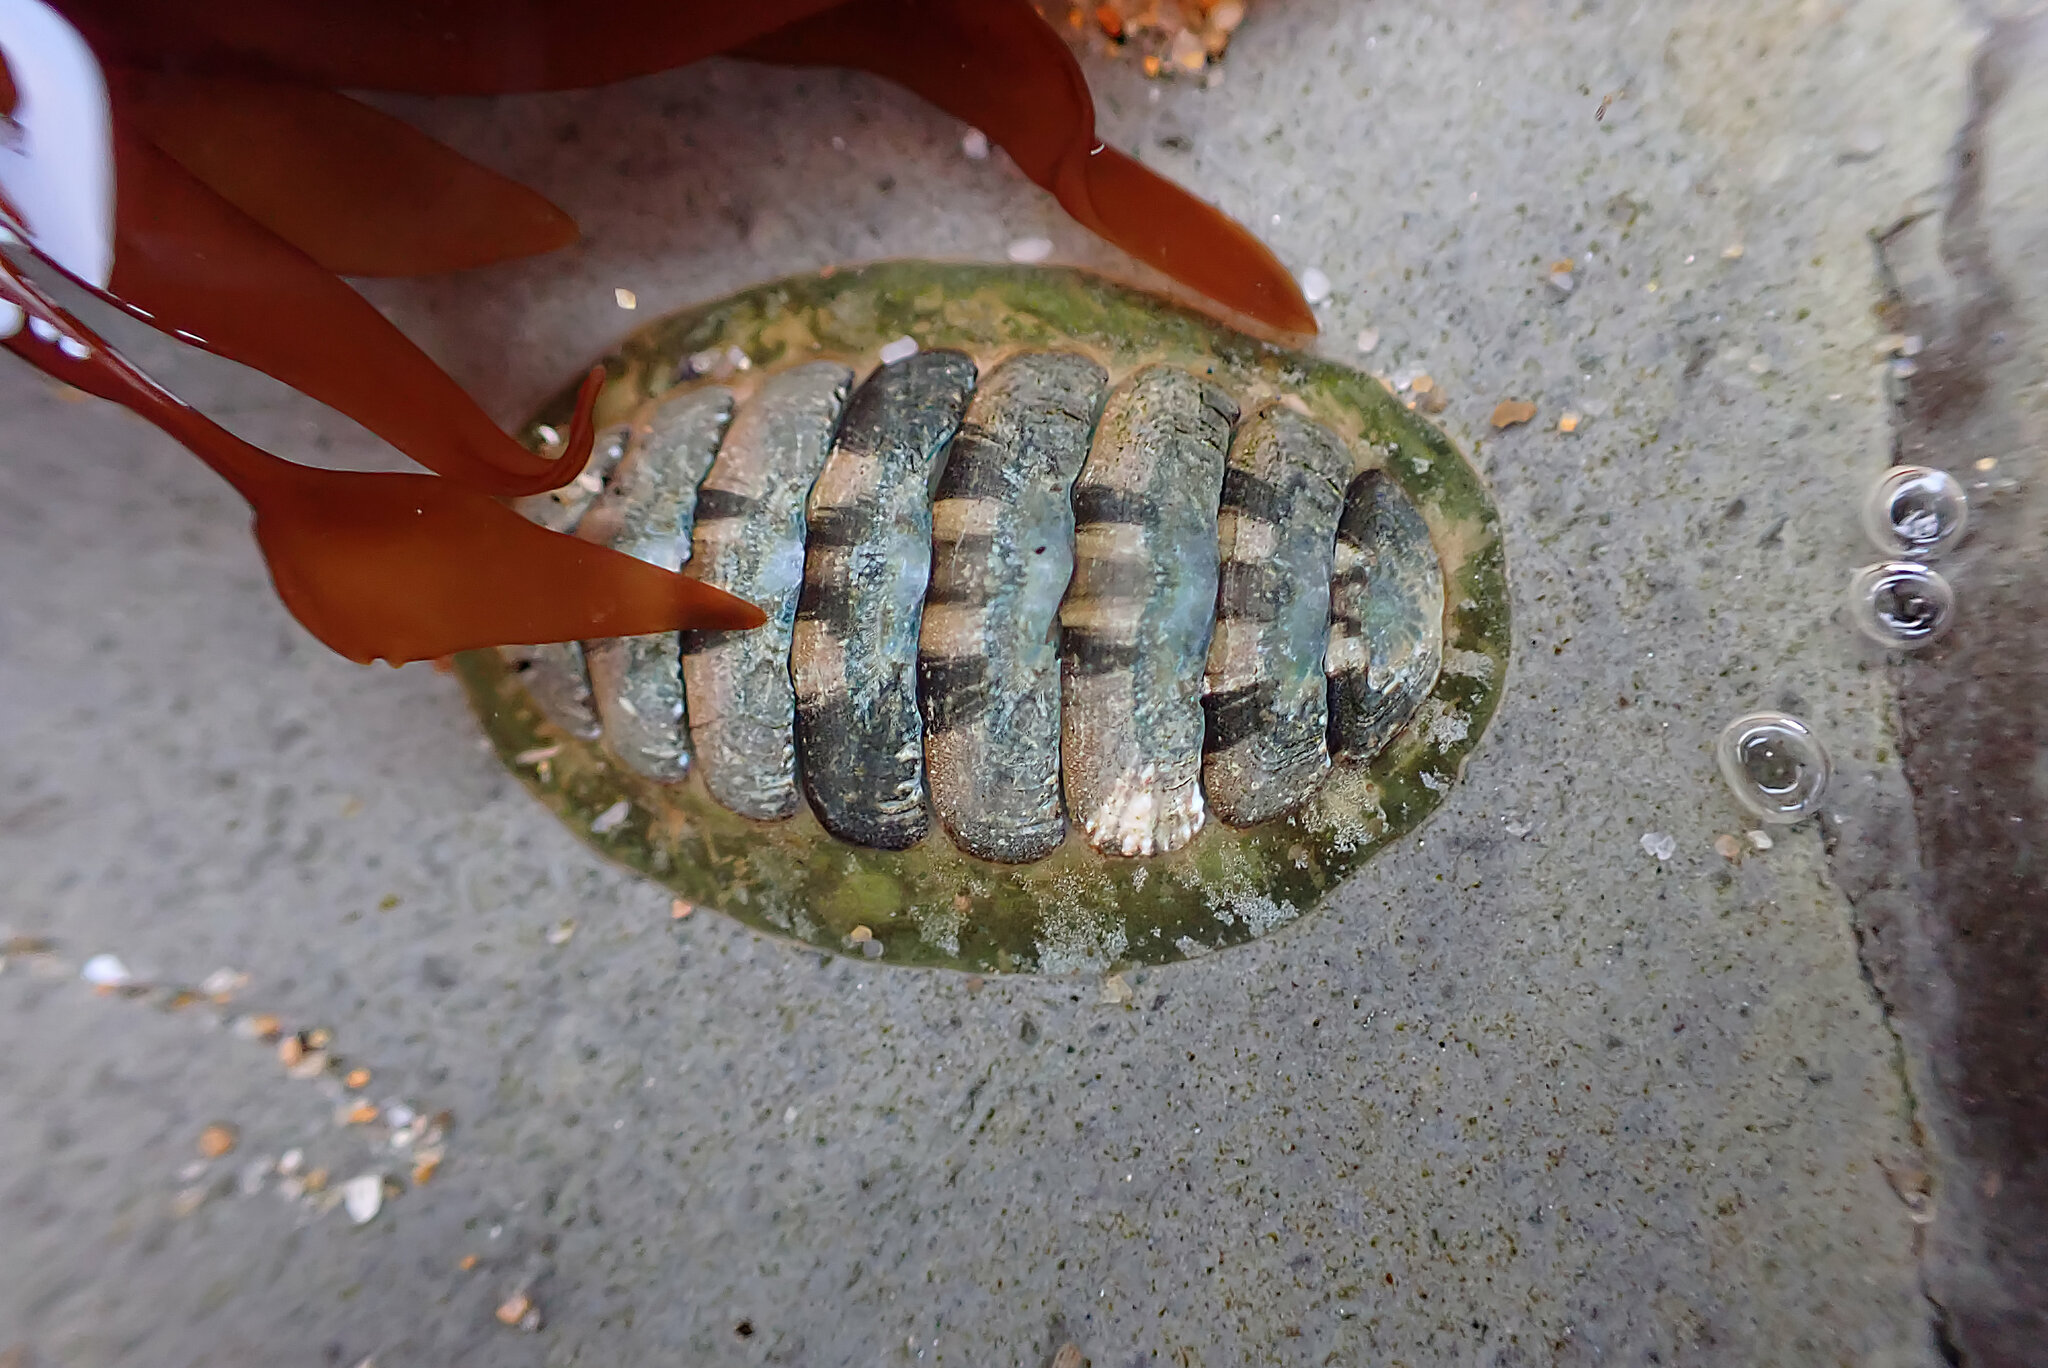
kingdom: Animalia
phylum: Mollusca
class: Polyplacophora
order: Chitonida
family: Tonicellidae
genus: Cyanoplax
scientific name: Cyanoplax hartwegii
